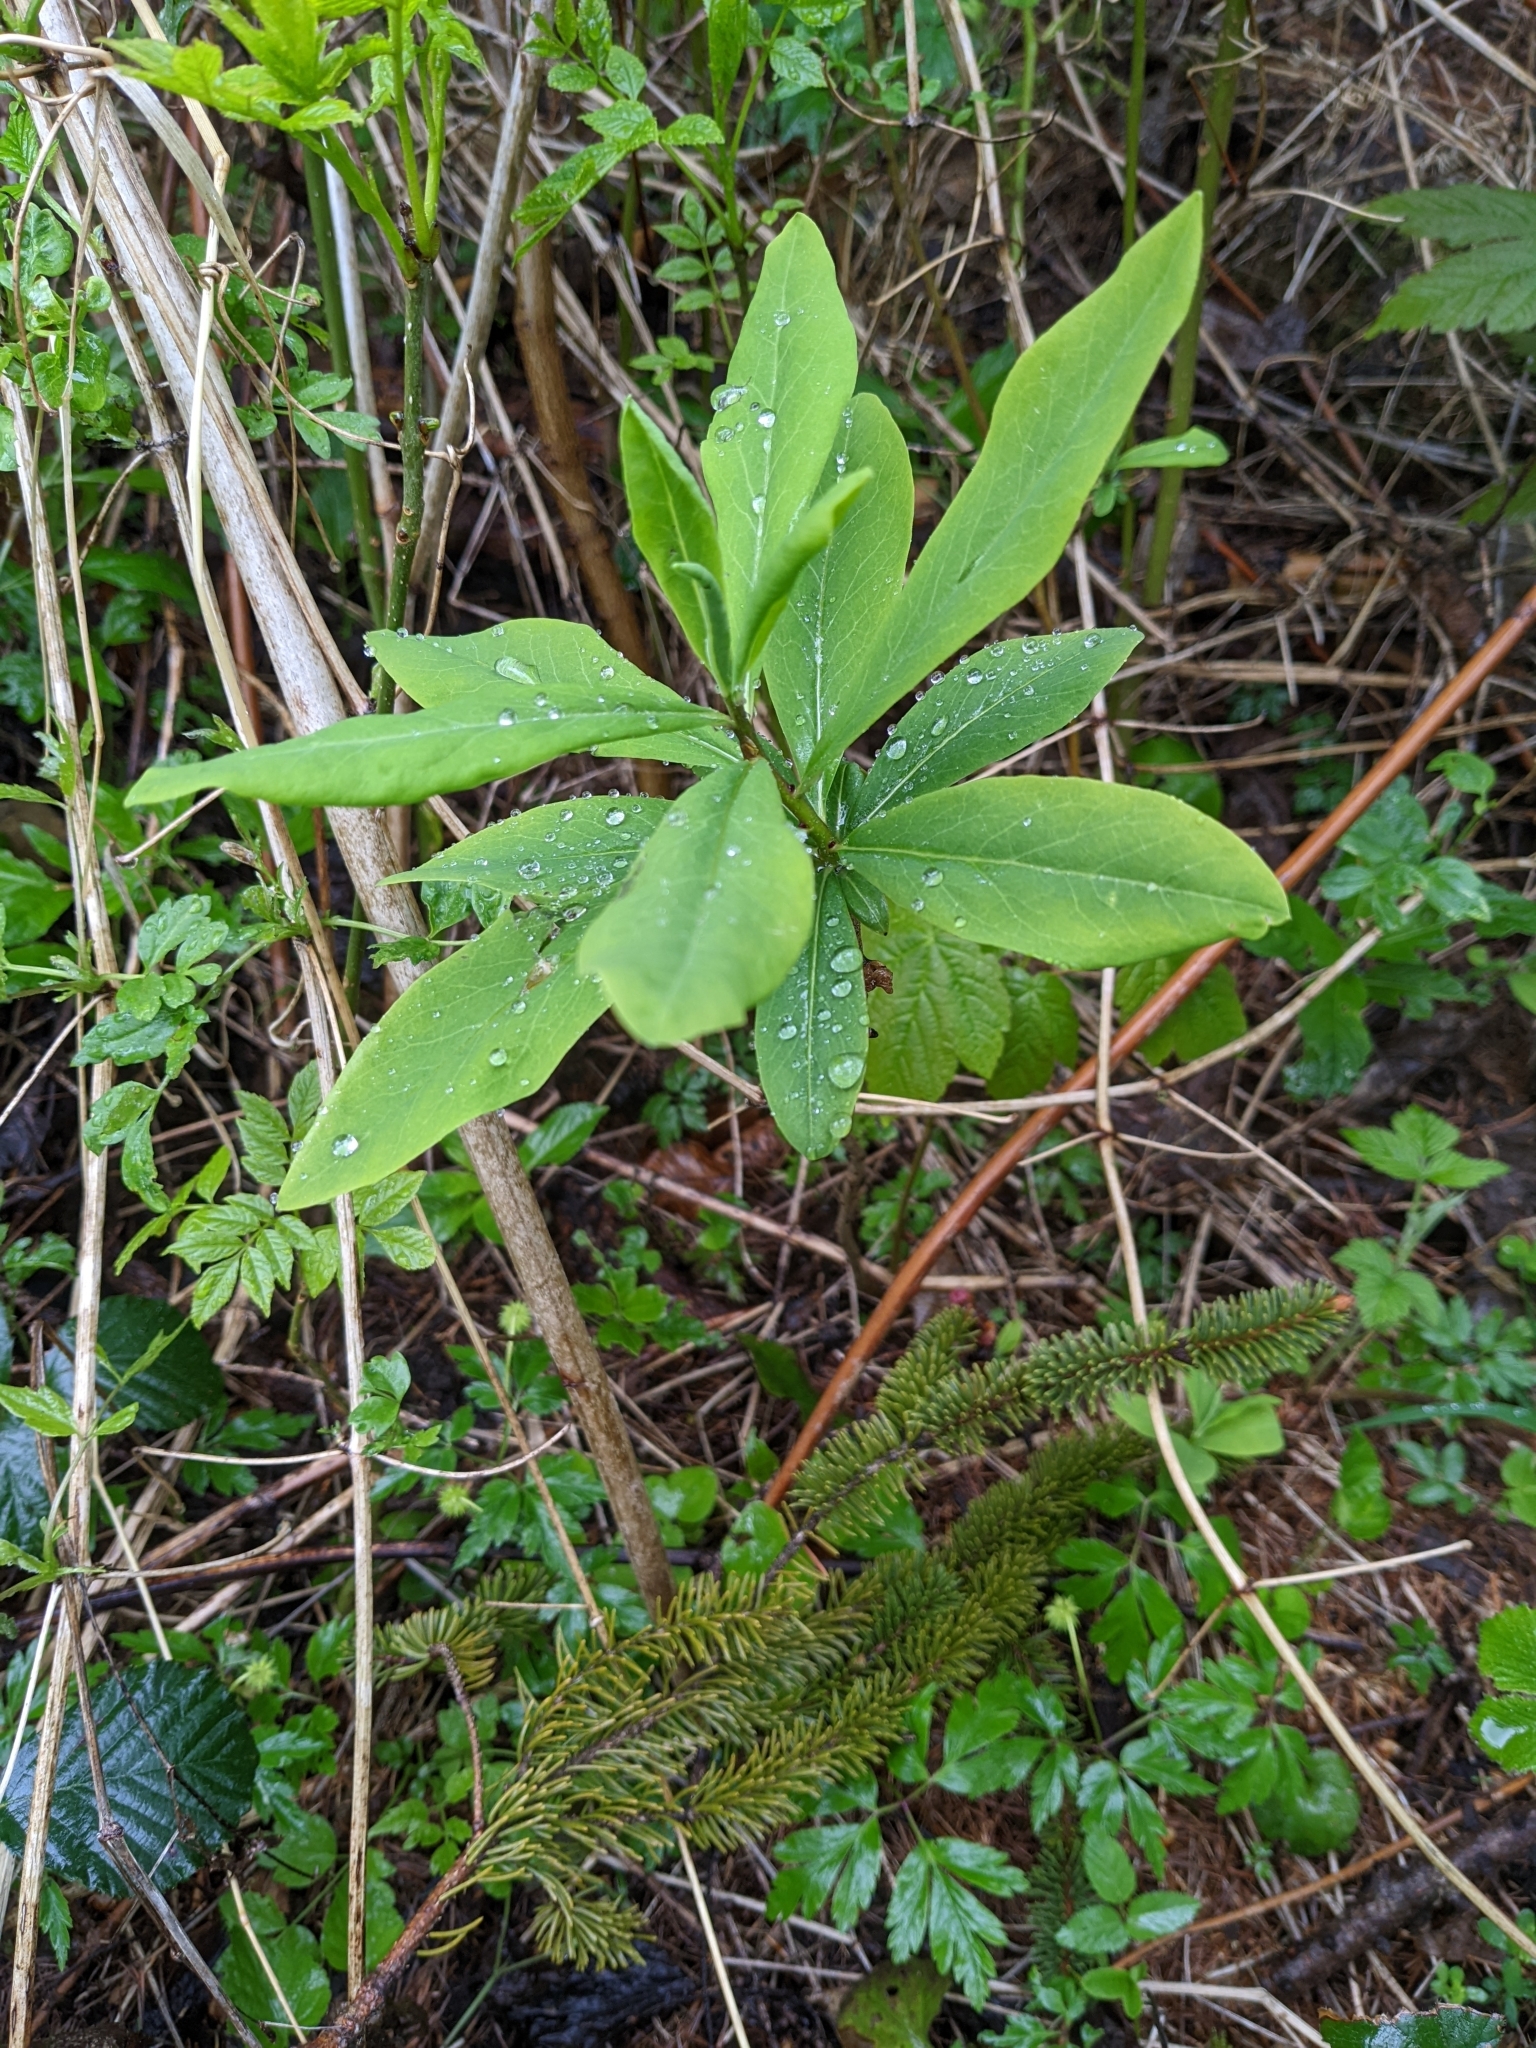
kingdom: Plantae
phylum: Tracheophyta
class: Magnoliopsida
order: Malvales
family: Thymelaeaceae
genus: Daphne
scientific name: Daphne mezereum
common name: Mezereon
